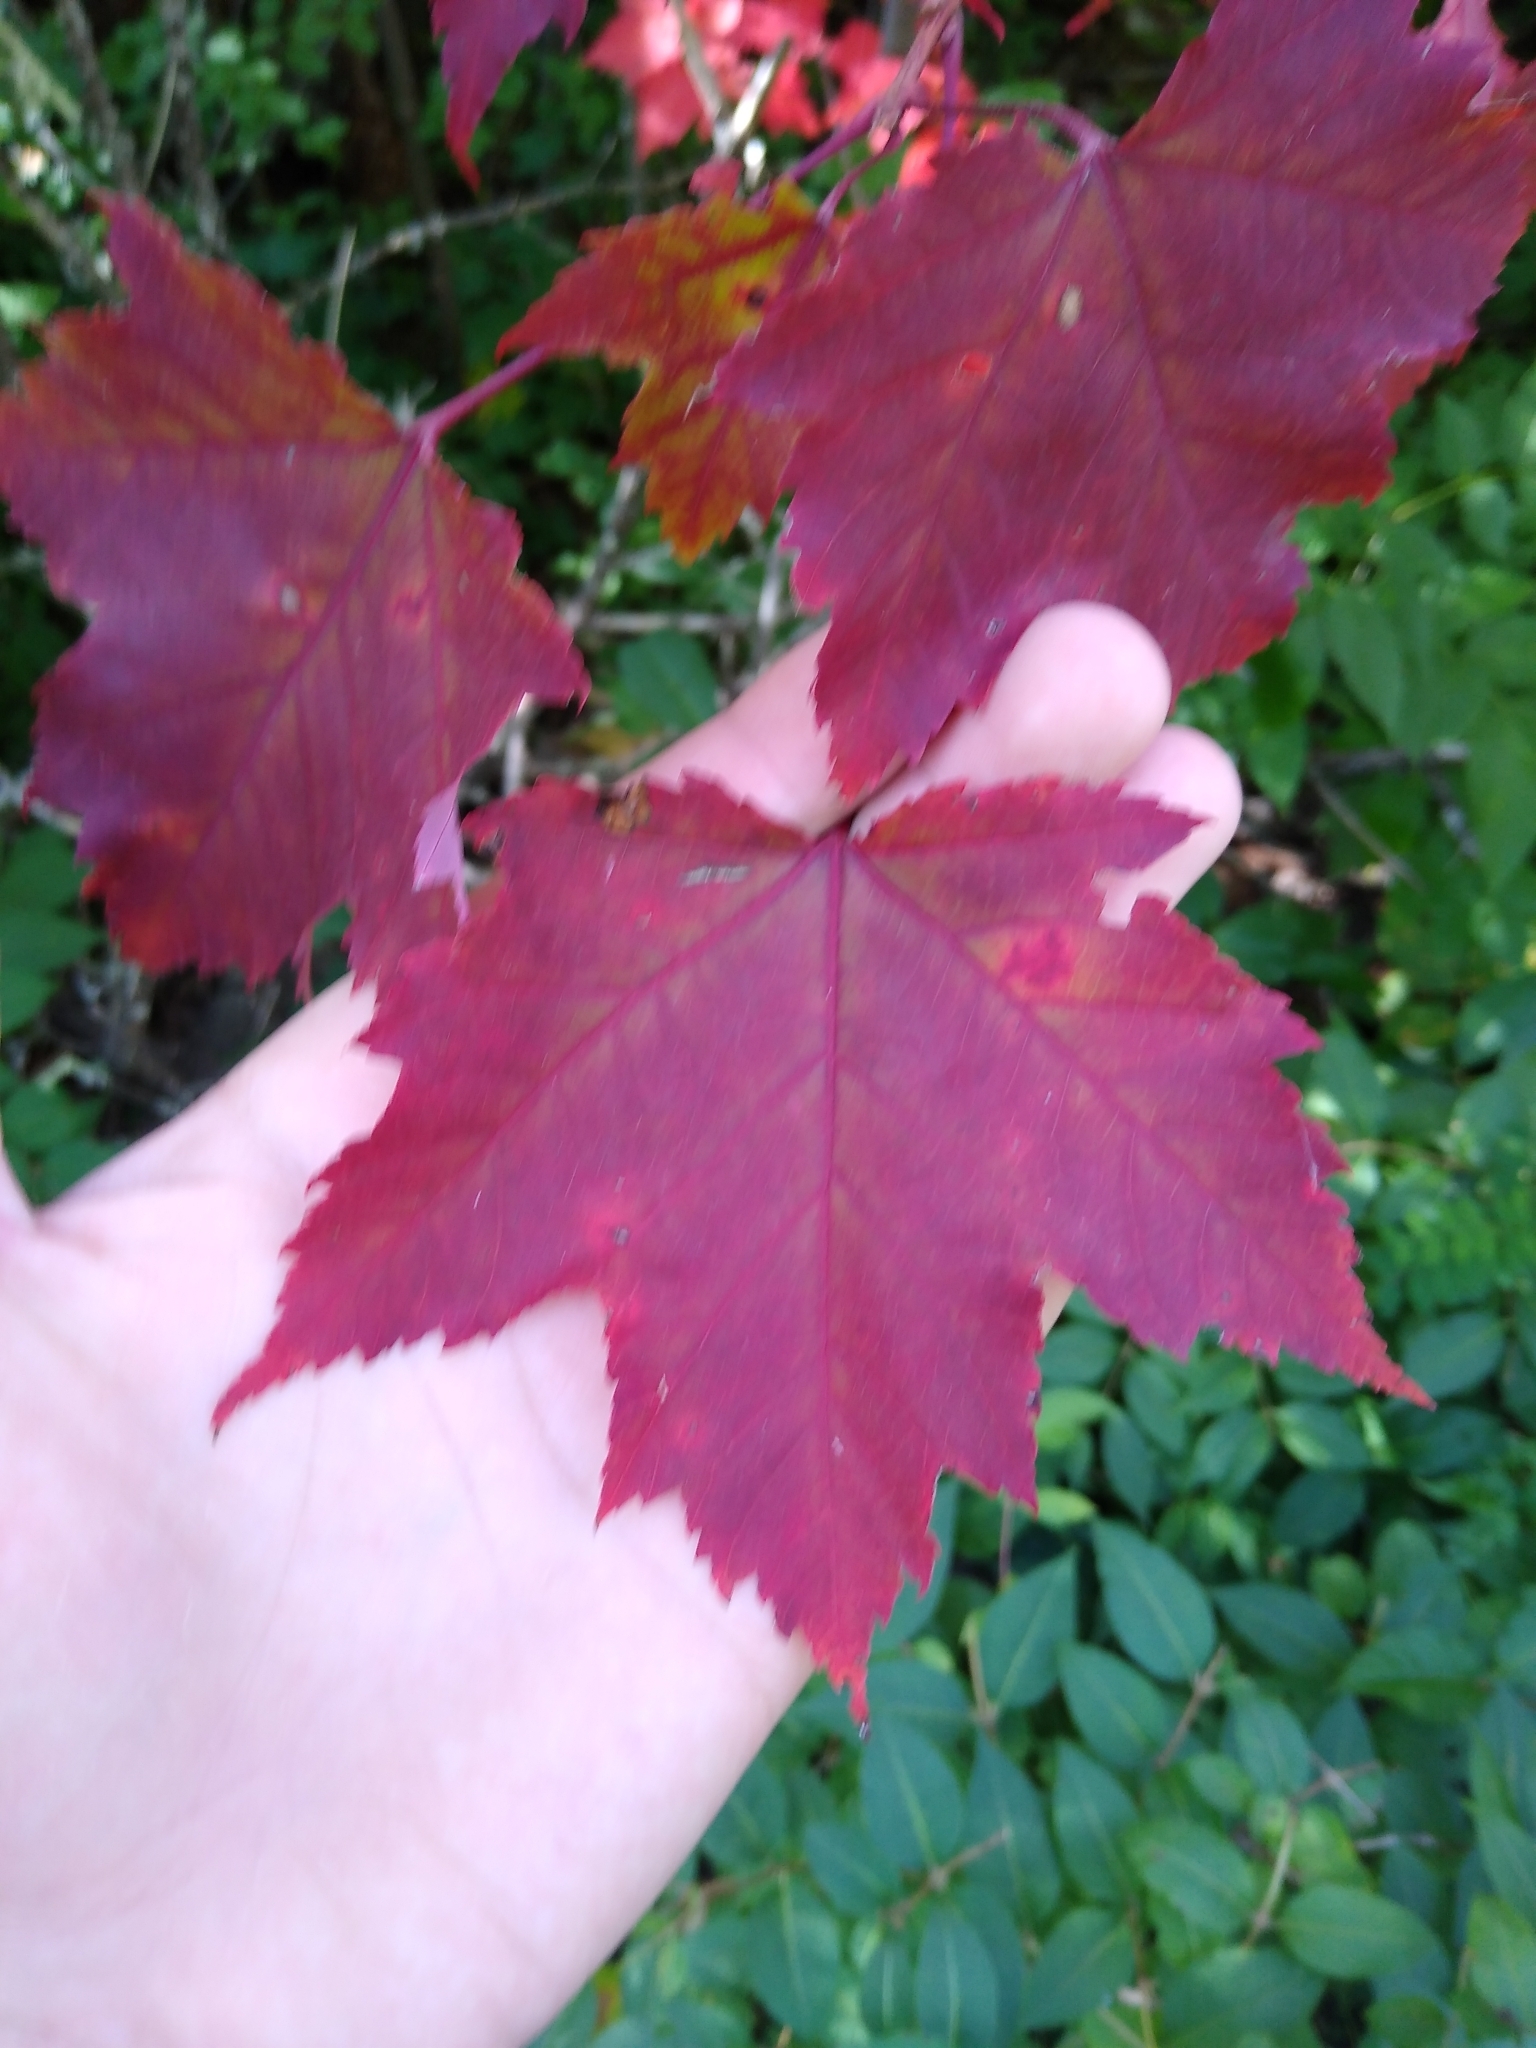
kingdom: Plantae
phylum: Tracheophyta
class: Magnoliopsida
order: Sapindales
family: Sapindaceae
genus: Acer
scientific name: Acer rubrum
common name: Red maple
